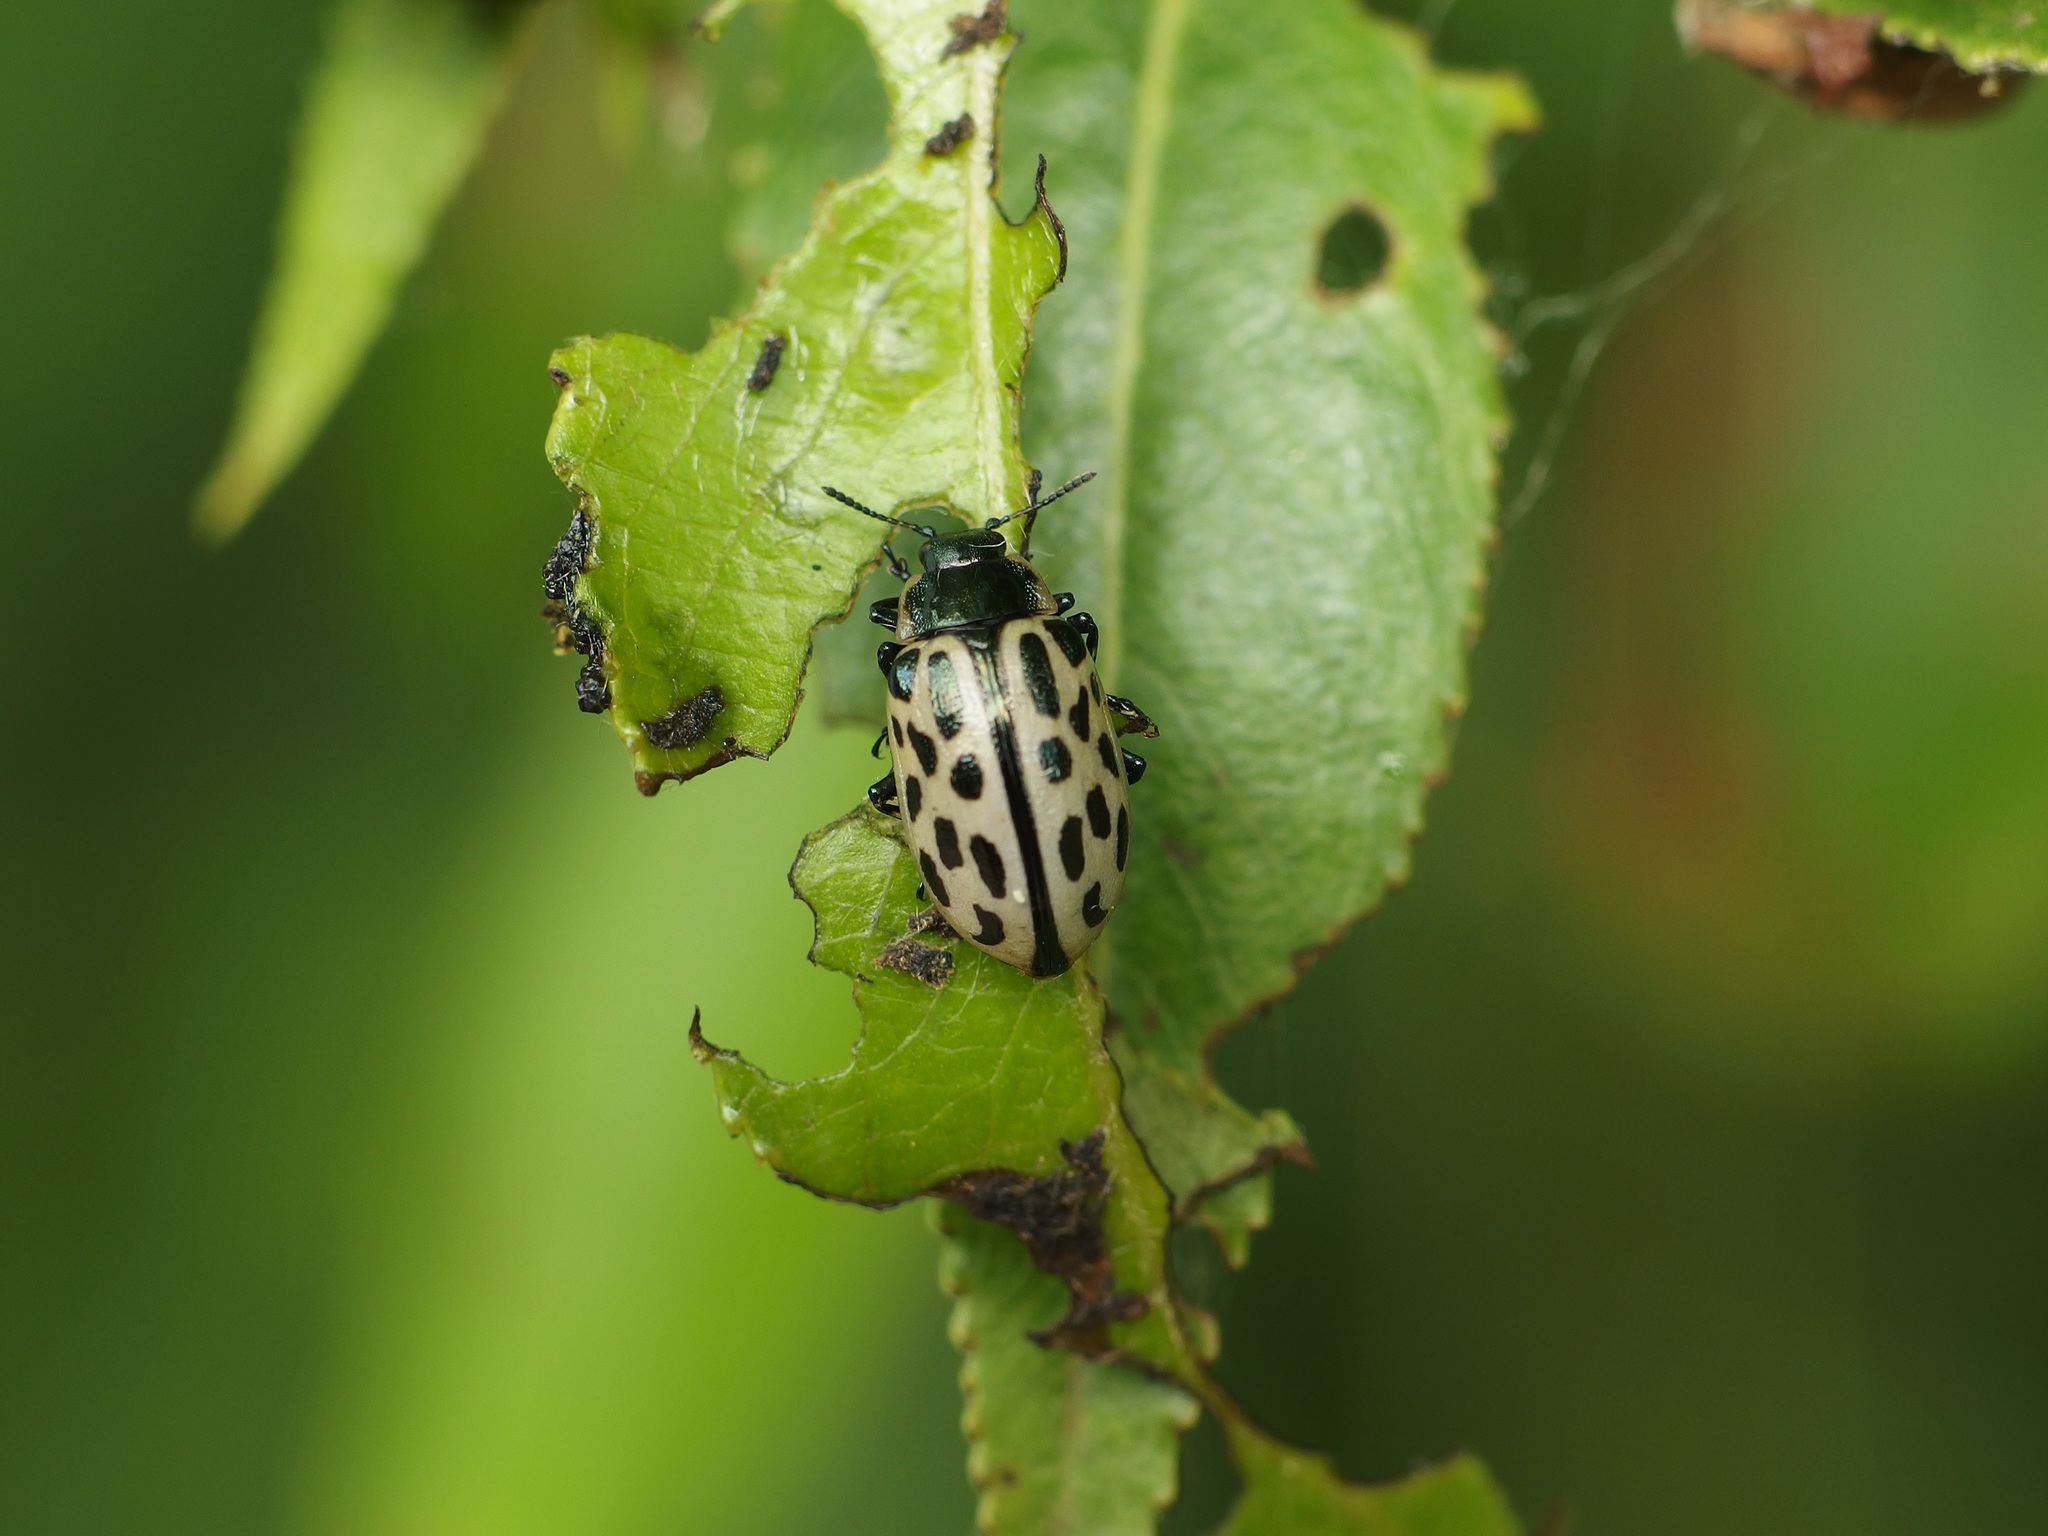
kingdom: Animalia
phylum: Arthropoda
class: Insecta
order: Coleoptera
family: Chrysomelidae
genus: Chrysomela
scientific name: Chrysomela vigintipunctata
